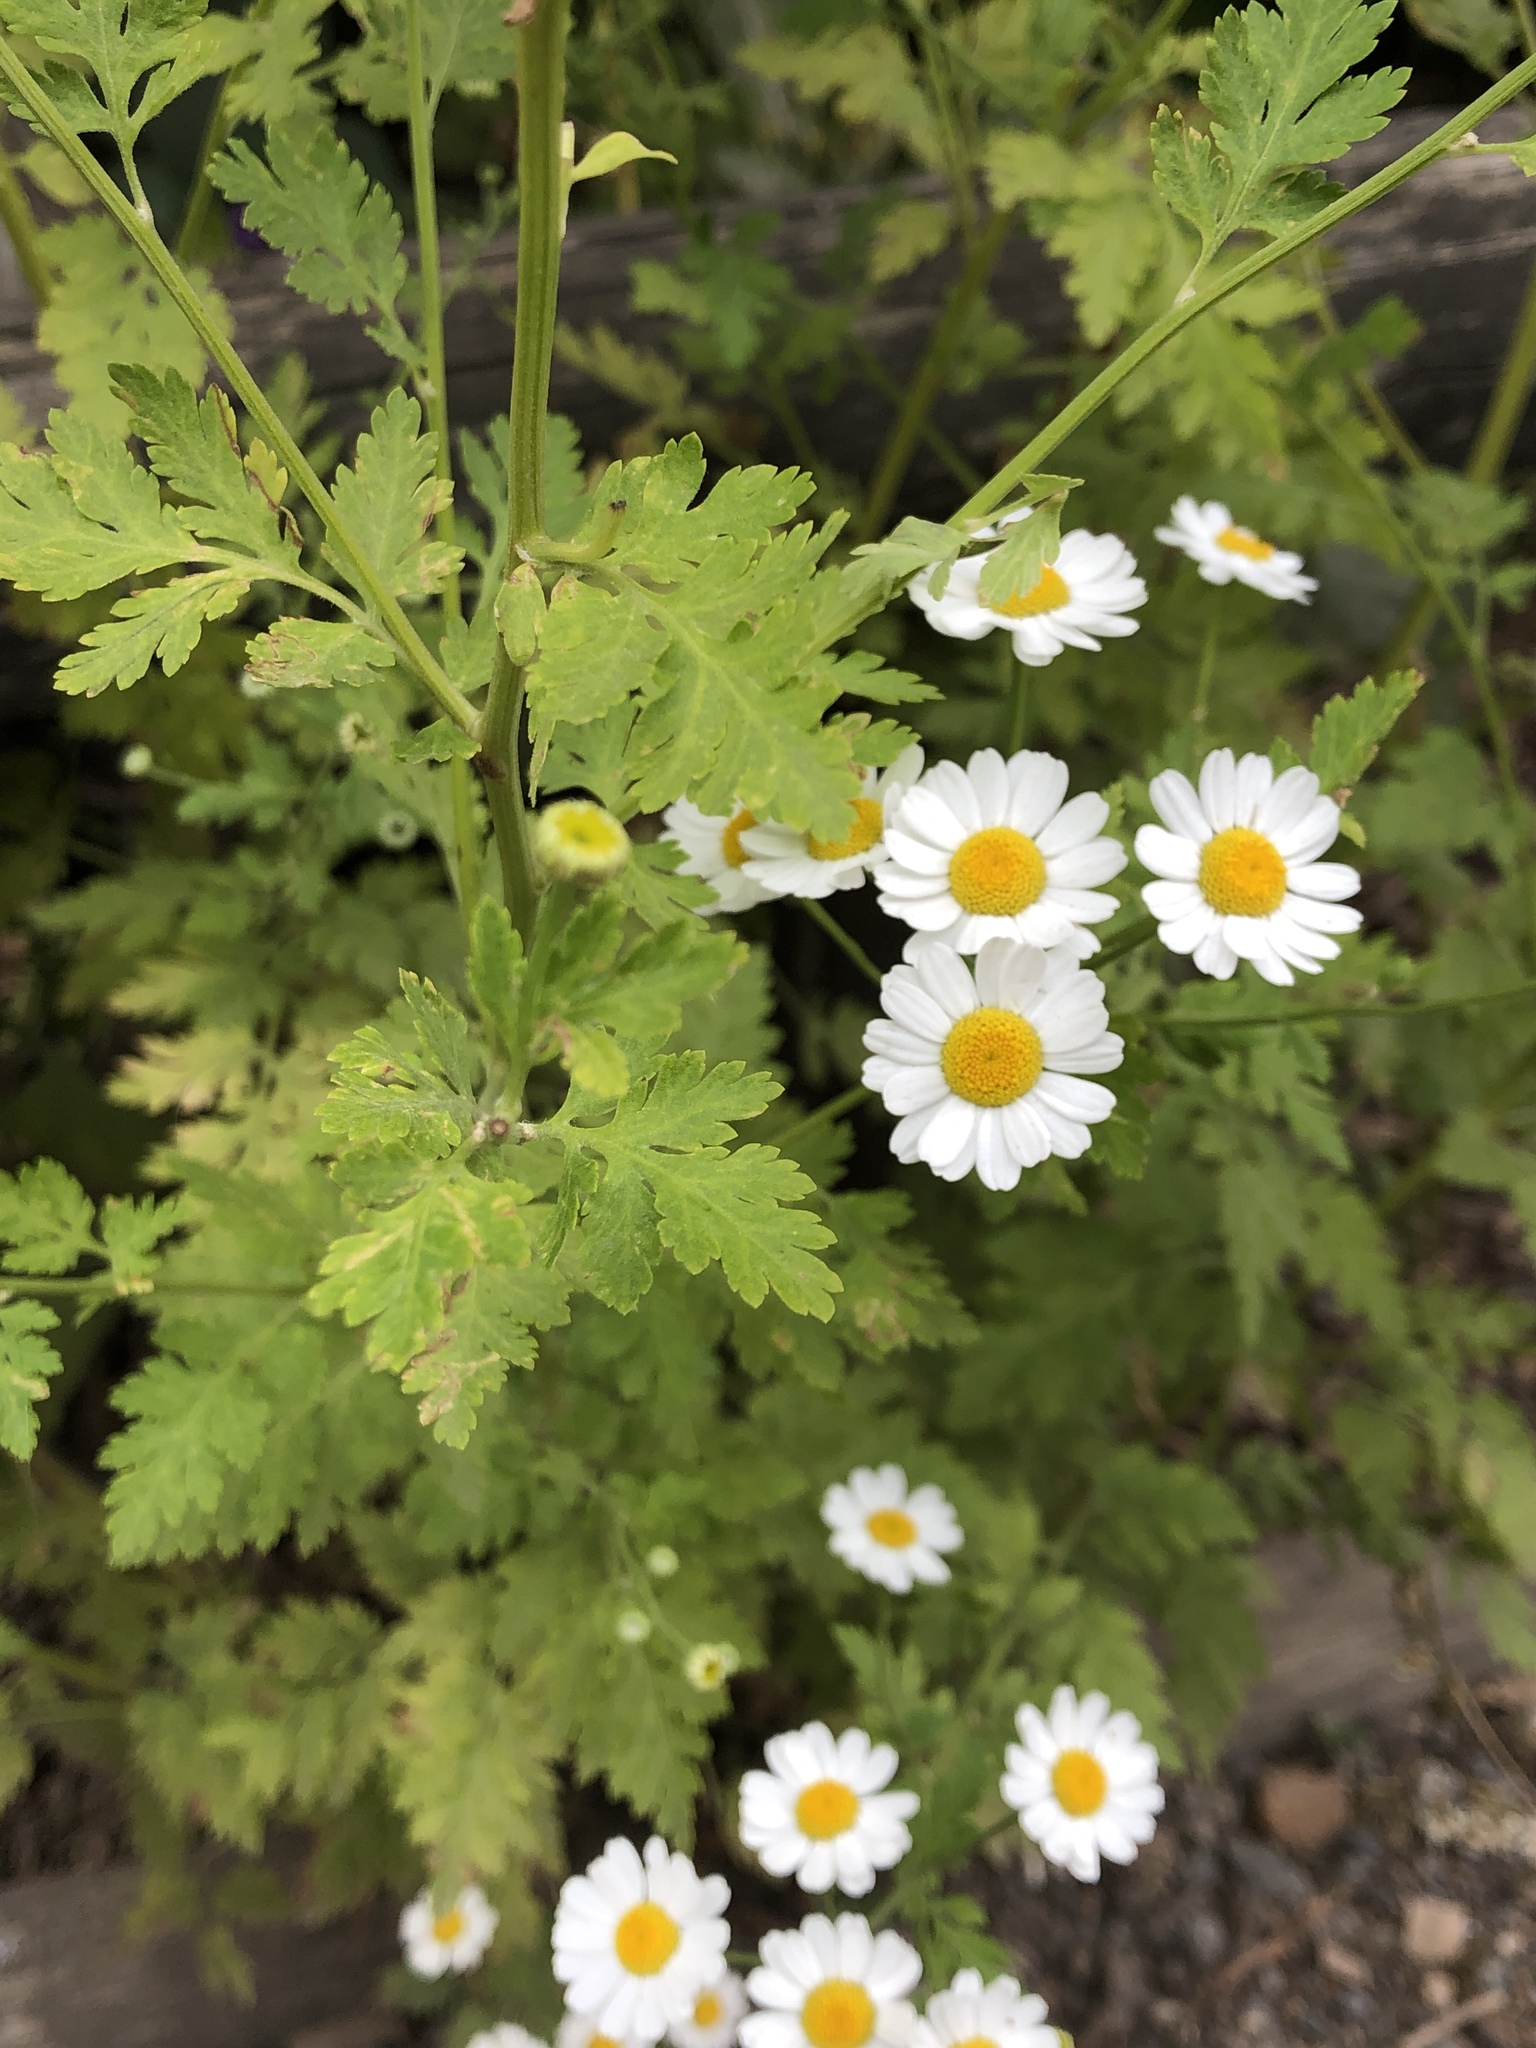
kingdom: Plantae
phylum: Tracheophyta
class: Magnoliopsida
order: Asterales
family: Asteraceae
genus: Tanacetum
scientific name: Tanacetum parthenium
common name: Feverfew
